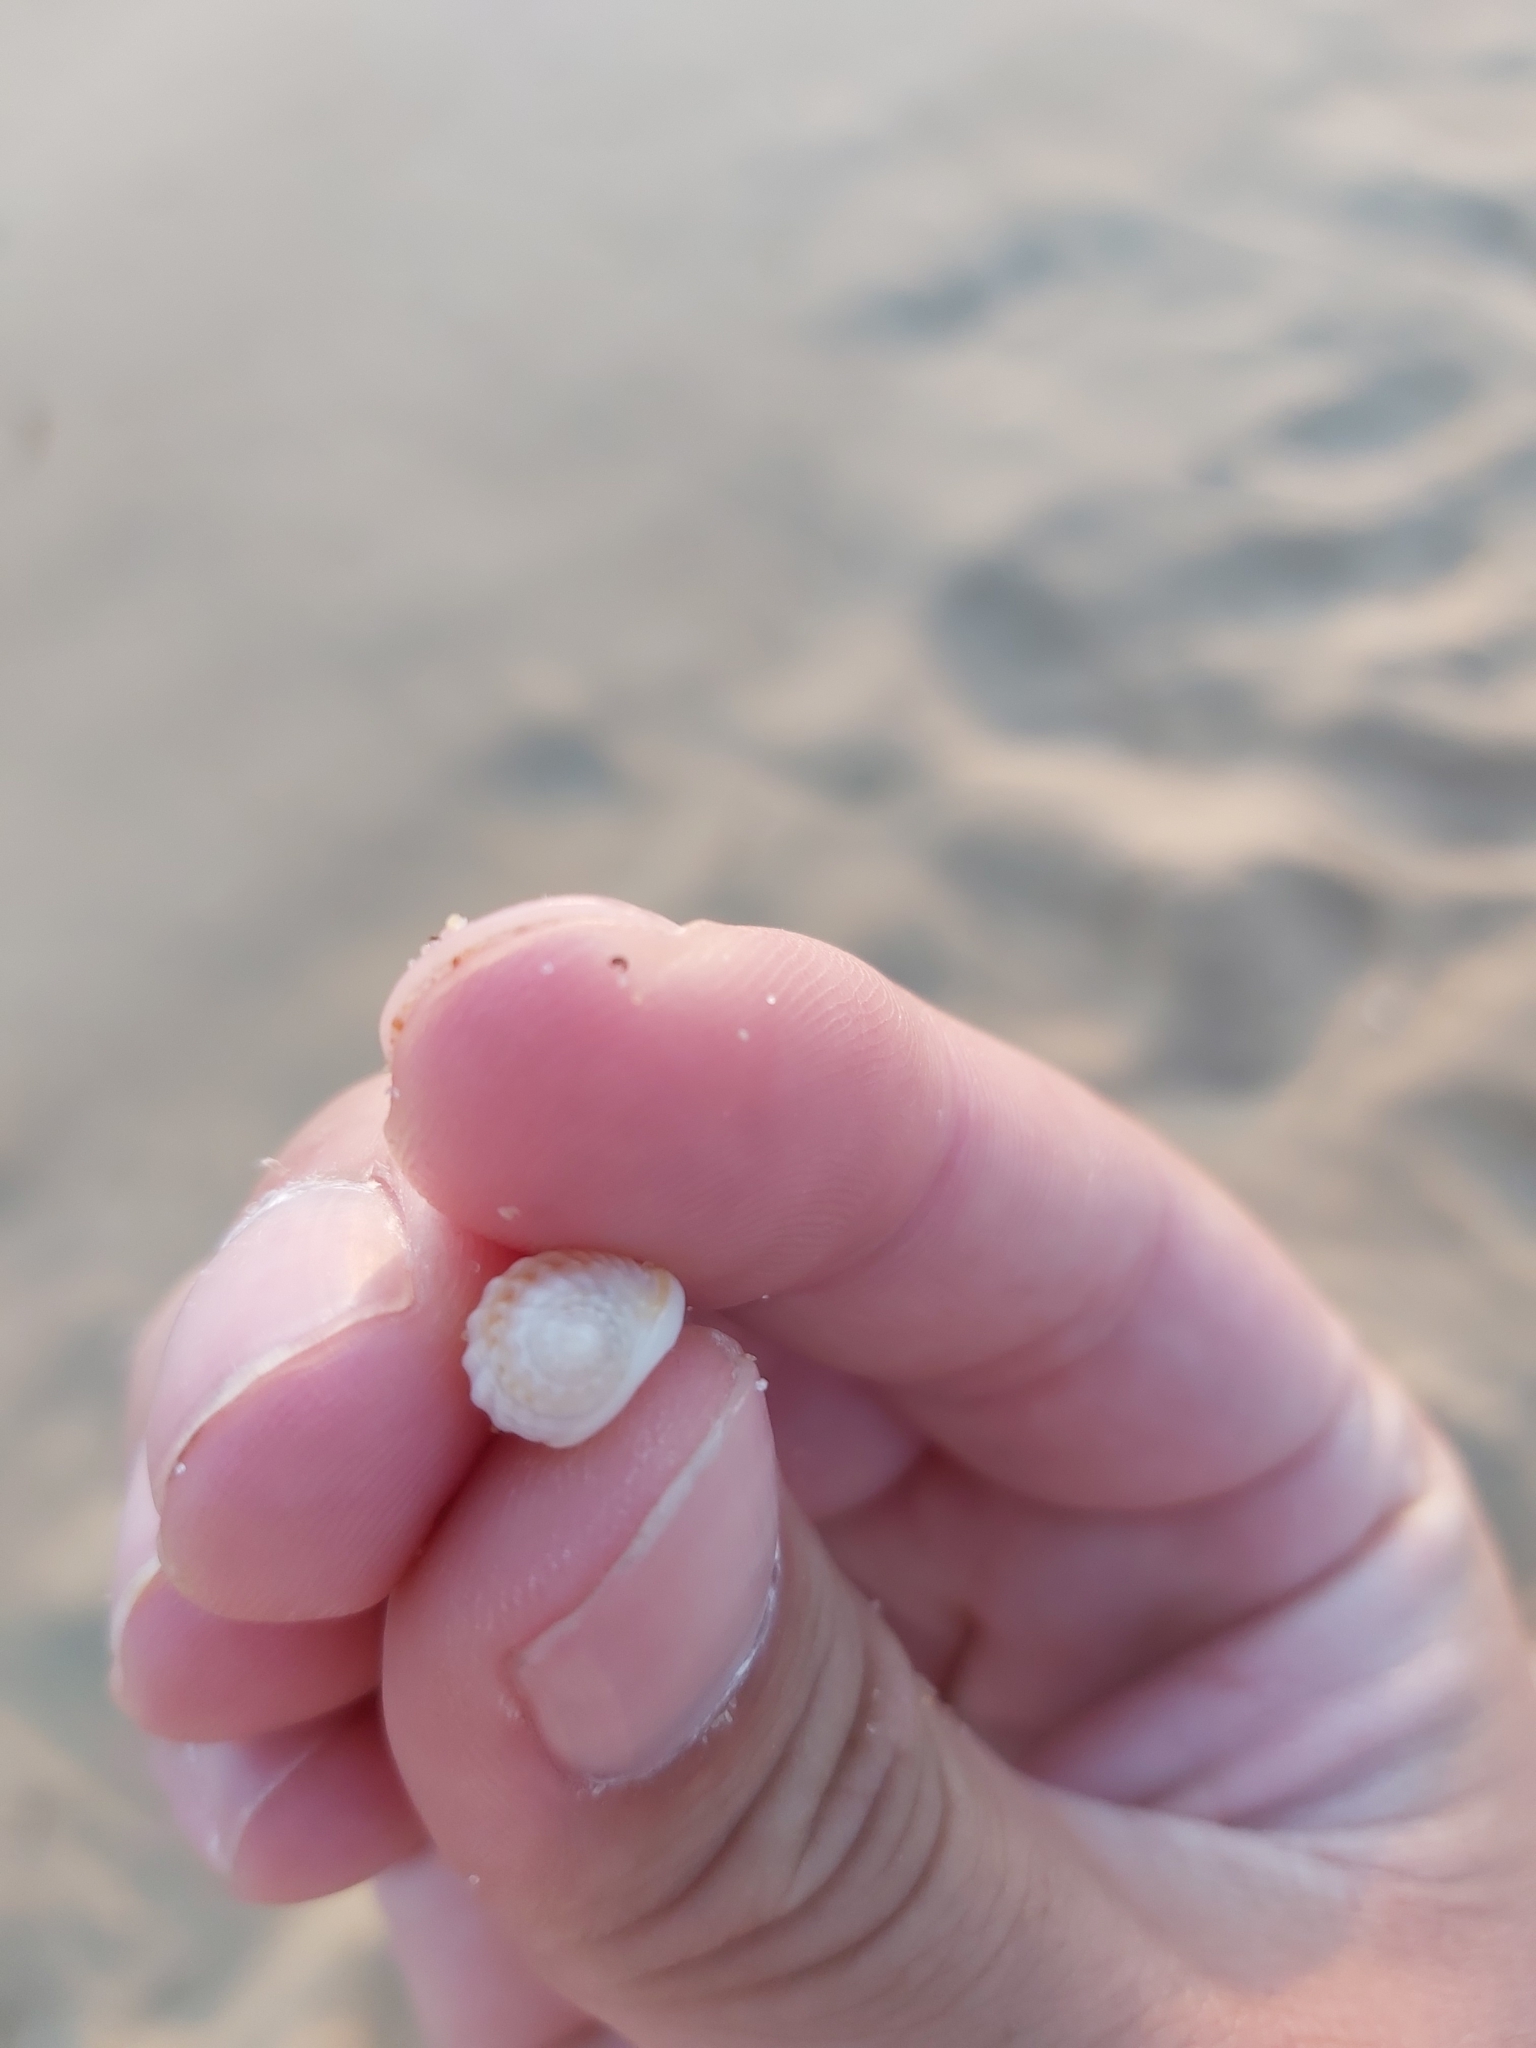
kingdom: Animalia
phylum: Mollusca
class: Gastropoda
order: Neogastropoda
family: Nassariidae
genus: Nassarius
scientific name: Nassarius jonasii
